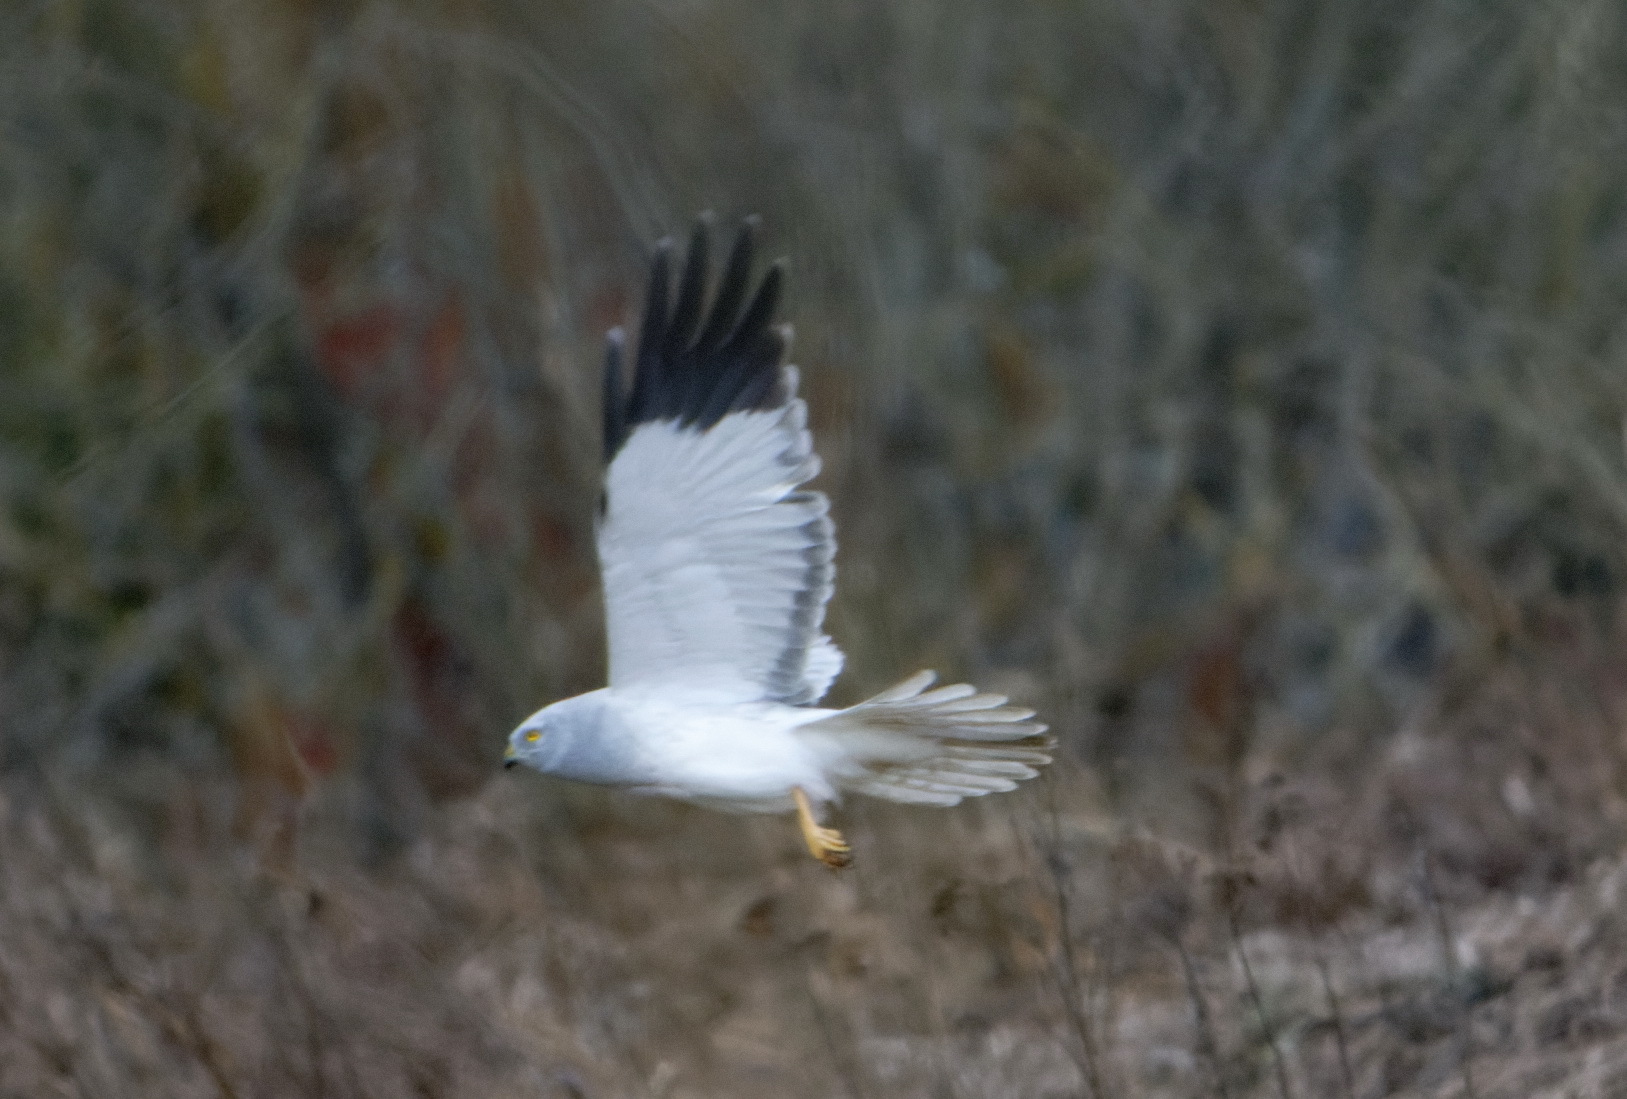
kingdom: Animalia
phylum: Chordata
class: Aves
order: Accipitriformes
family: Accipitridae
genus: Circus
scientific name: Circus cyaneus
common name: Hen harrier
